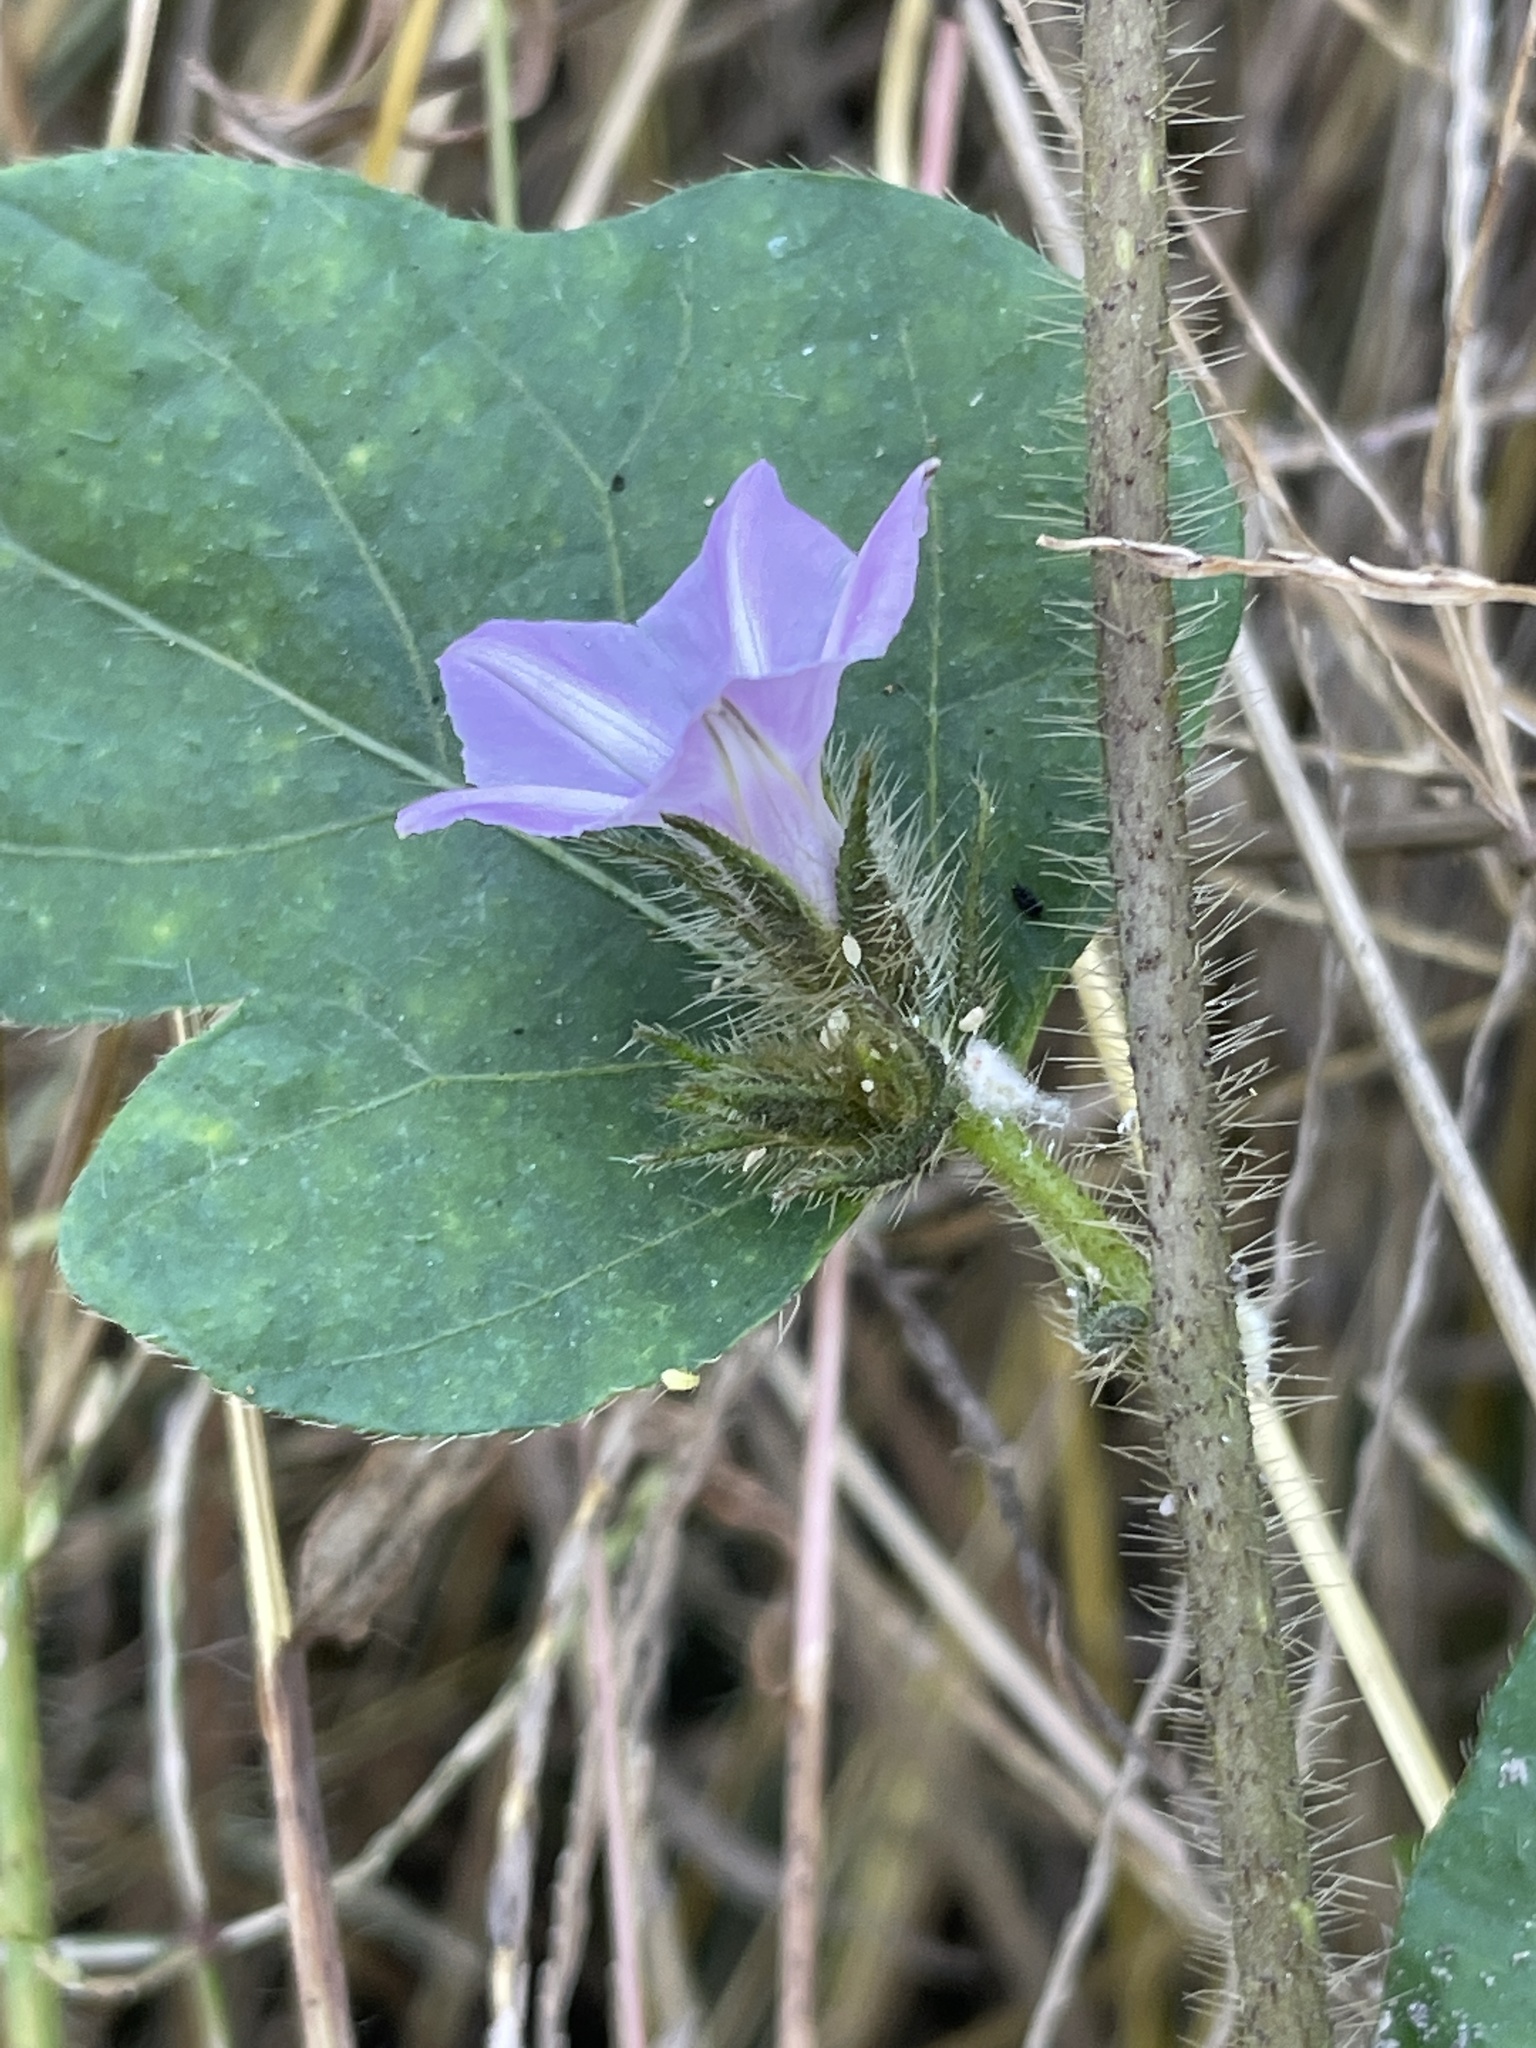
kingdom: Plantae
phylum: Tracheophyta
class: Magnoliopsida
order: Solanales
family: Convolvulaceae
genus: Ipomoea
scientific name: Ipomoea arachnosperma
